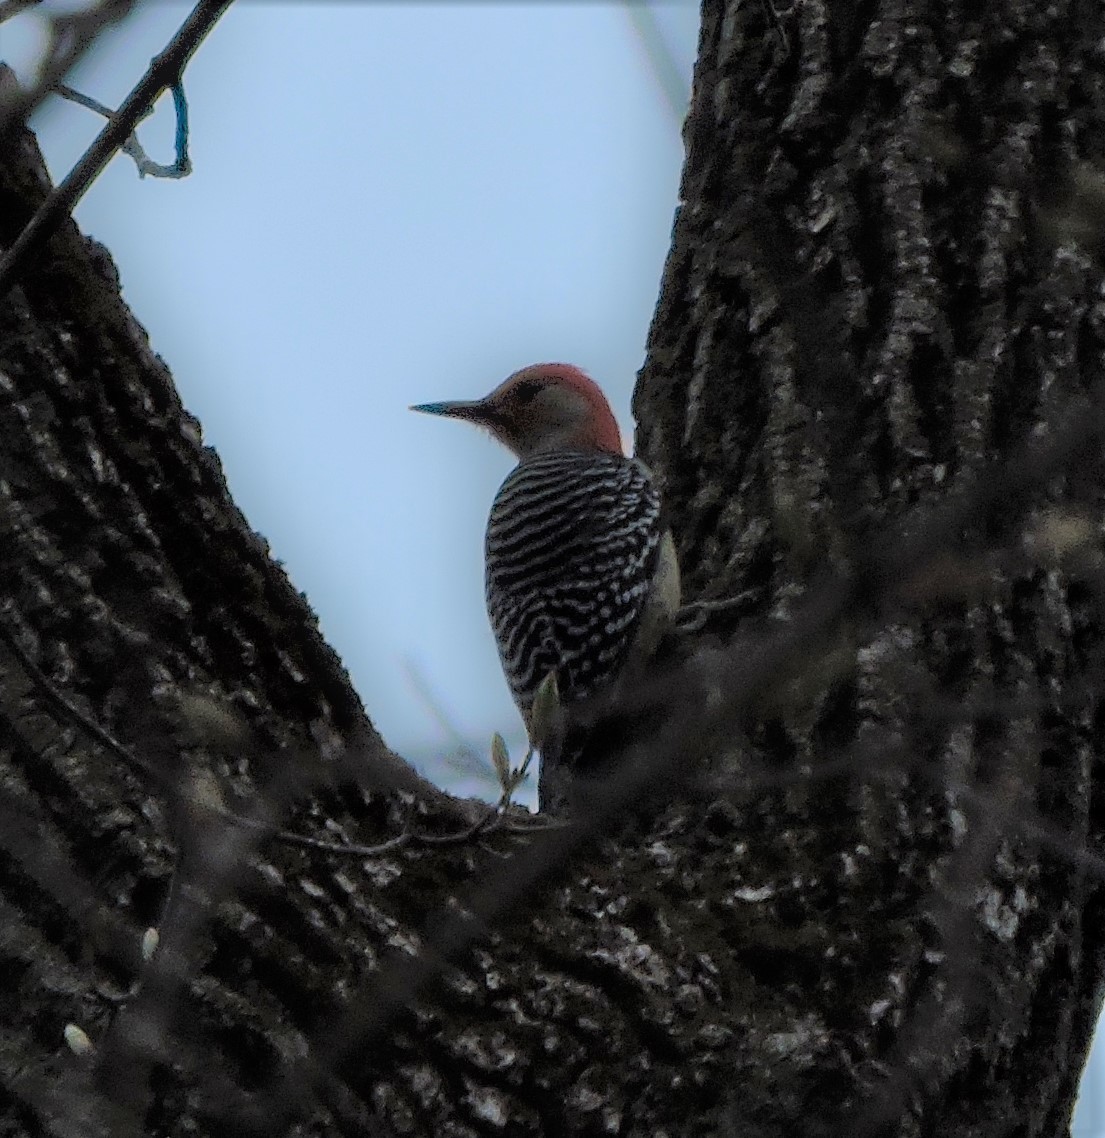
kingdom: Animalia
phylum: Chordata
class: Aves
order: Piciformes
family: Picidae
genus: Melanerpes
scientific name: Melanerpes carolinus
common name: Red-bellied woodpecker
